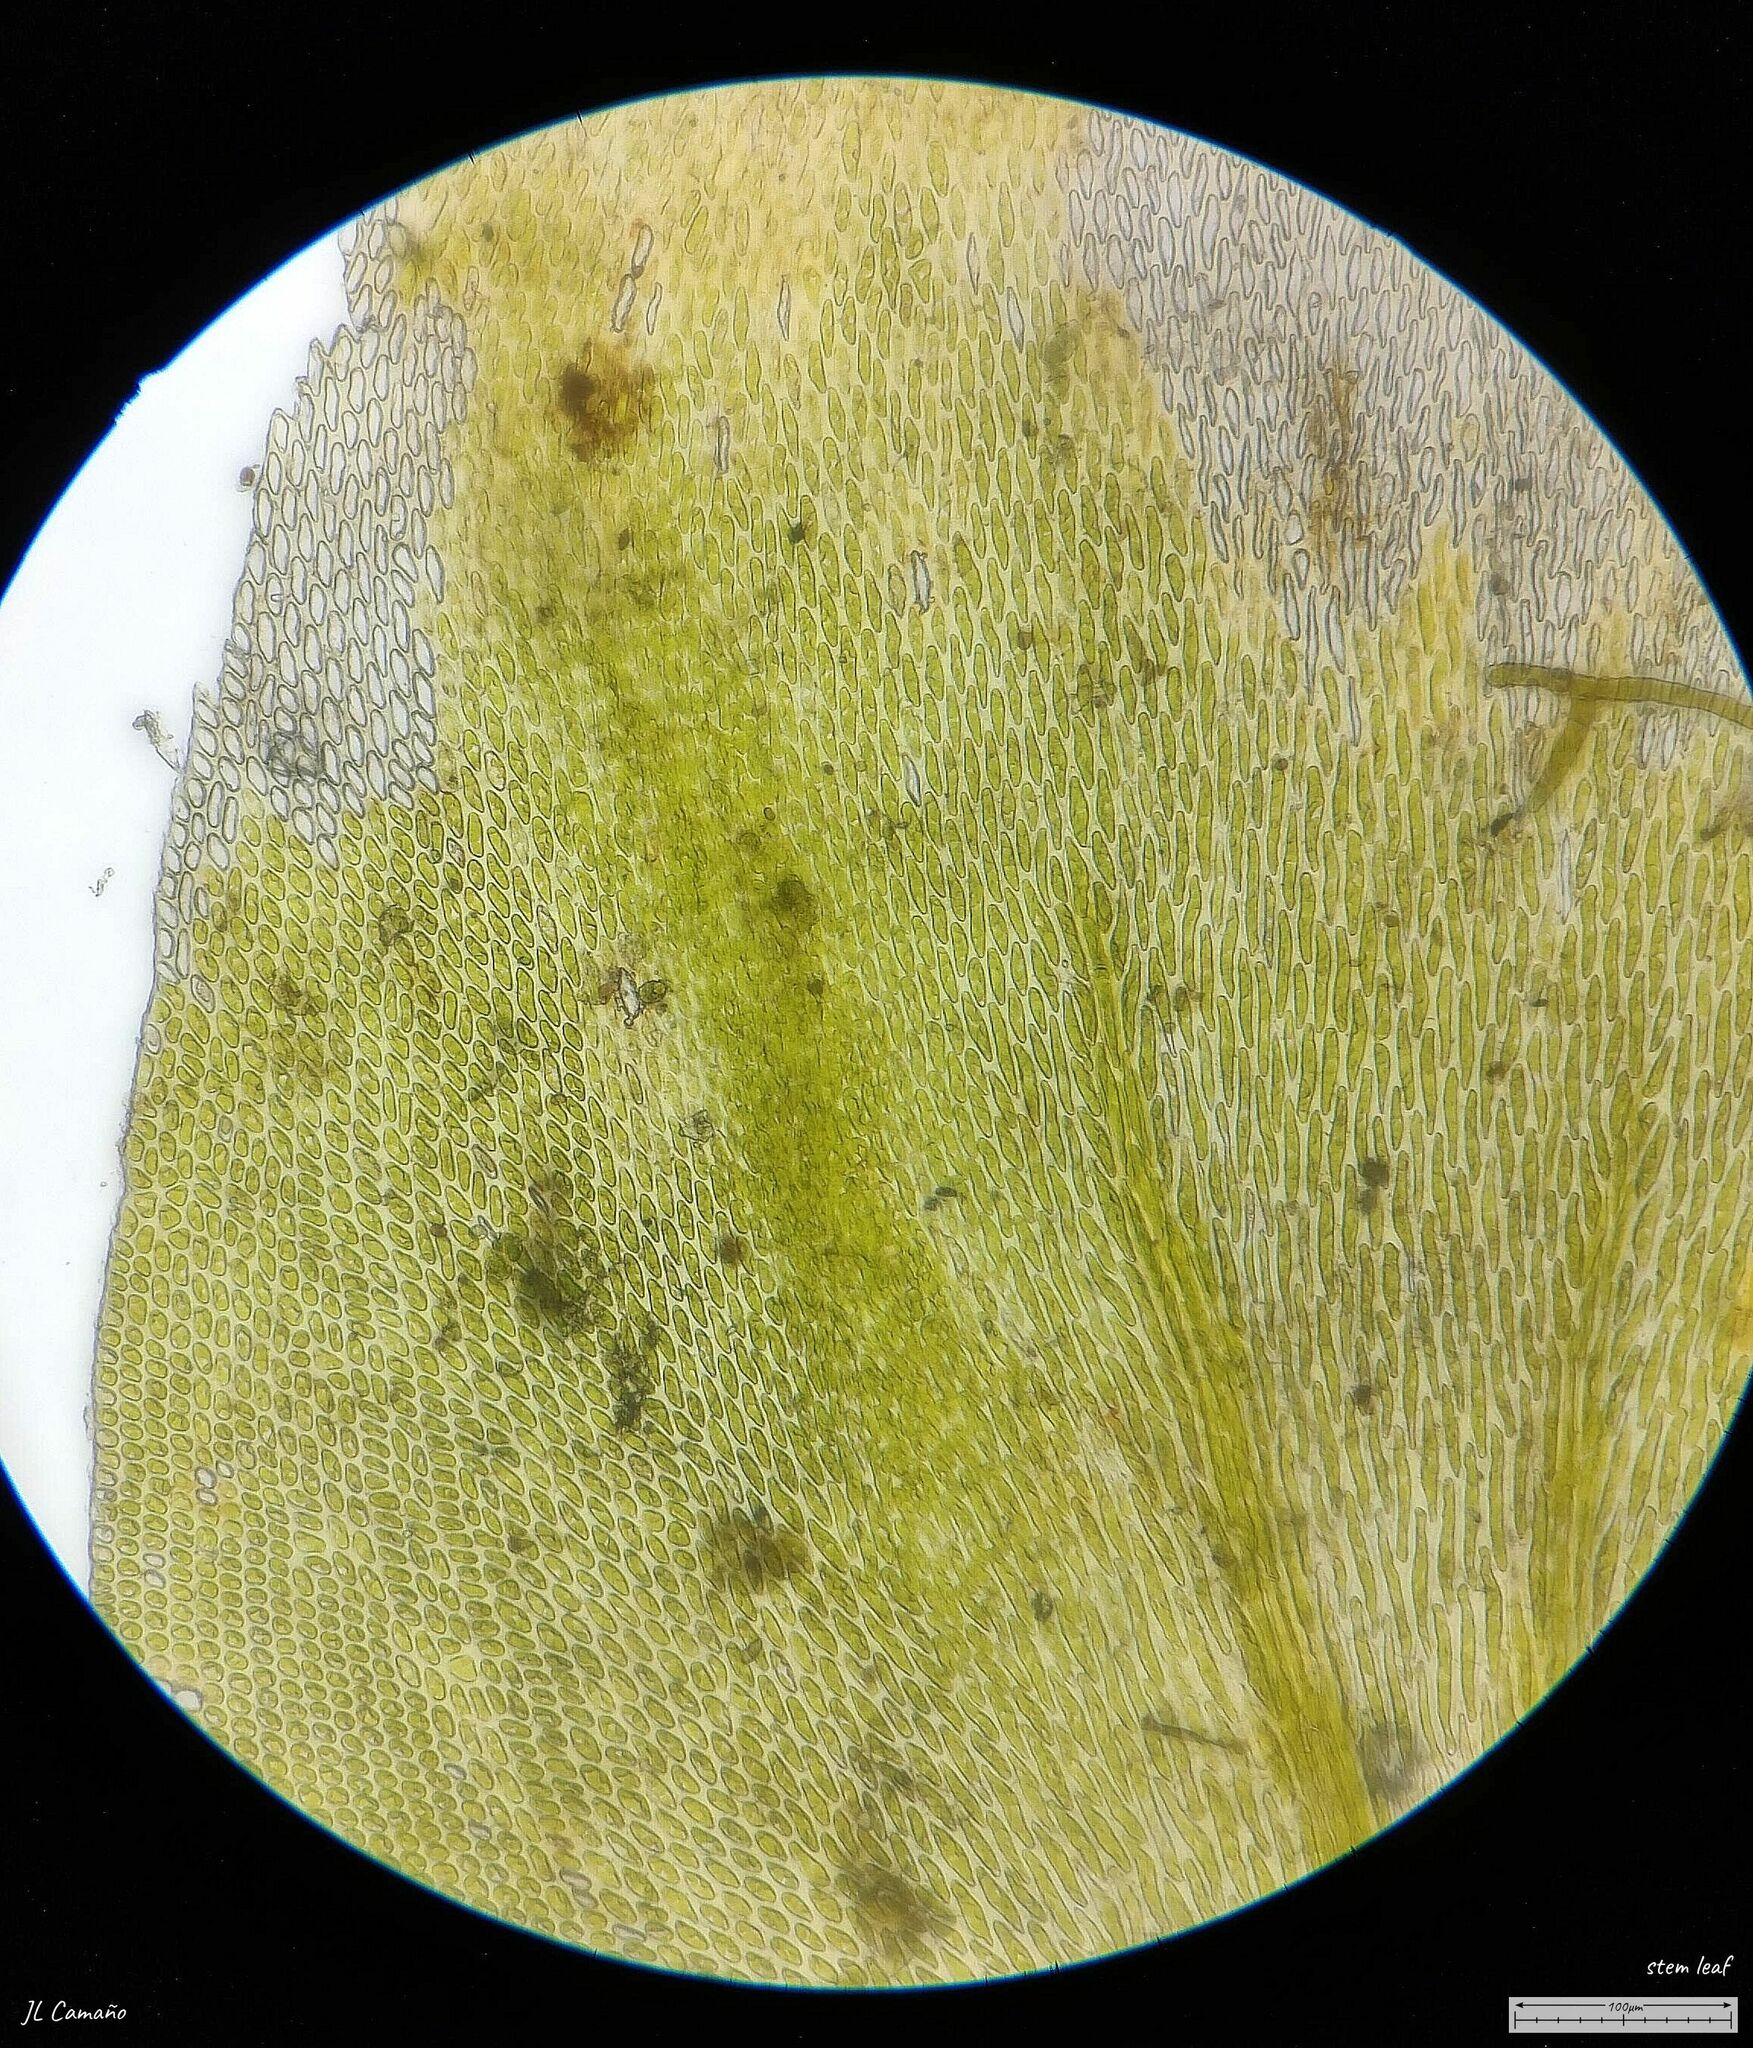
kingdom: Plantae
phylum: Bryophyta
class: Bryopsida
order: Hypnales
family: Lembophyllaceae
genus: Nogopterium
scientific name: Nogopterium gracile
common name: Bird's-foot wing-moss
